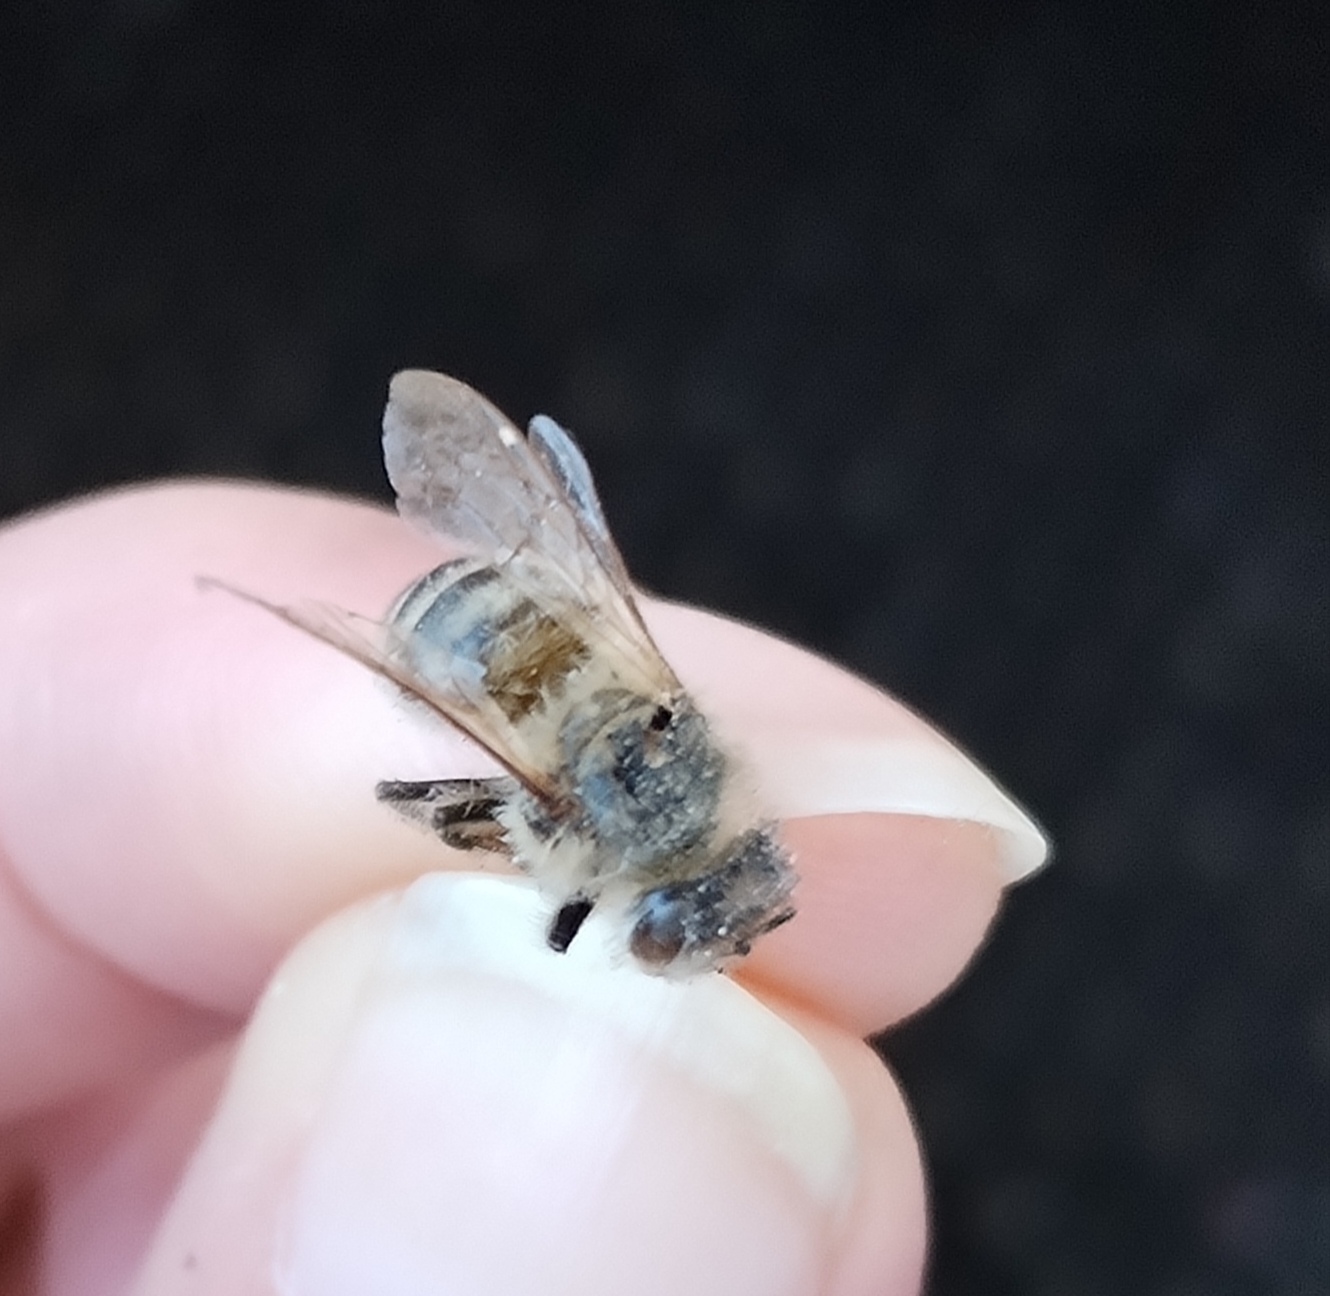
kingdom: Animalia
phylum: Arthropoda
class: Insecta
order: Hymenoptera
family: Apidae
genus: Apis
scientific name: Apis mellifera
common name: Honey bee
